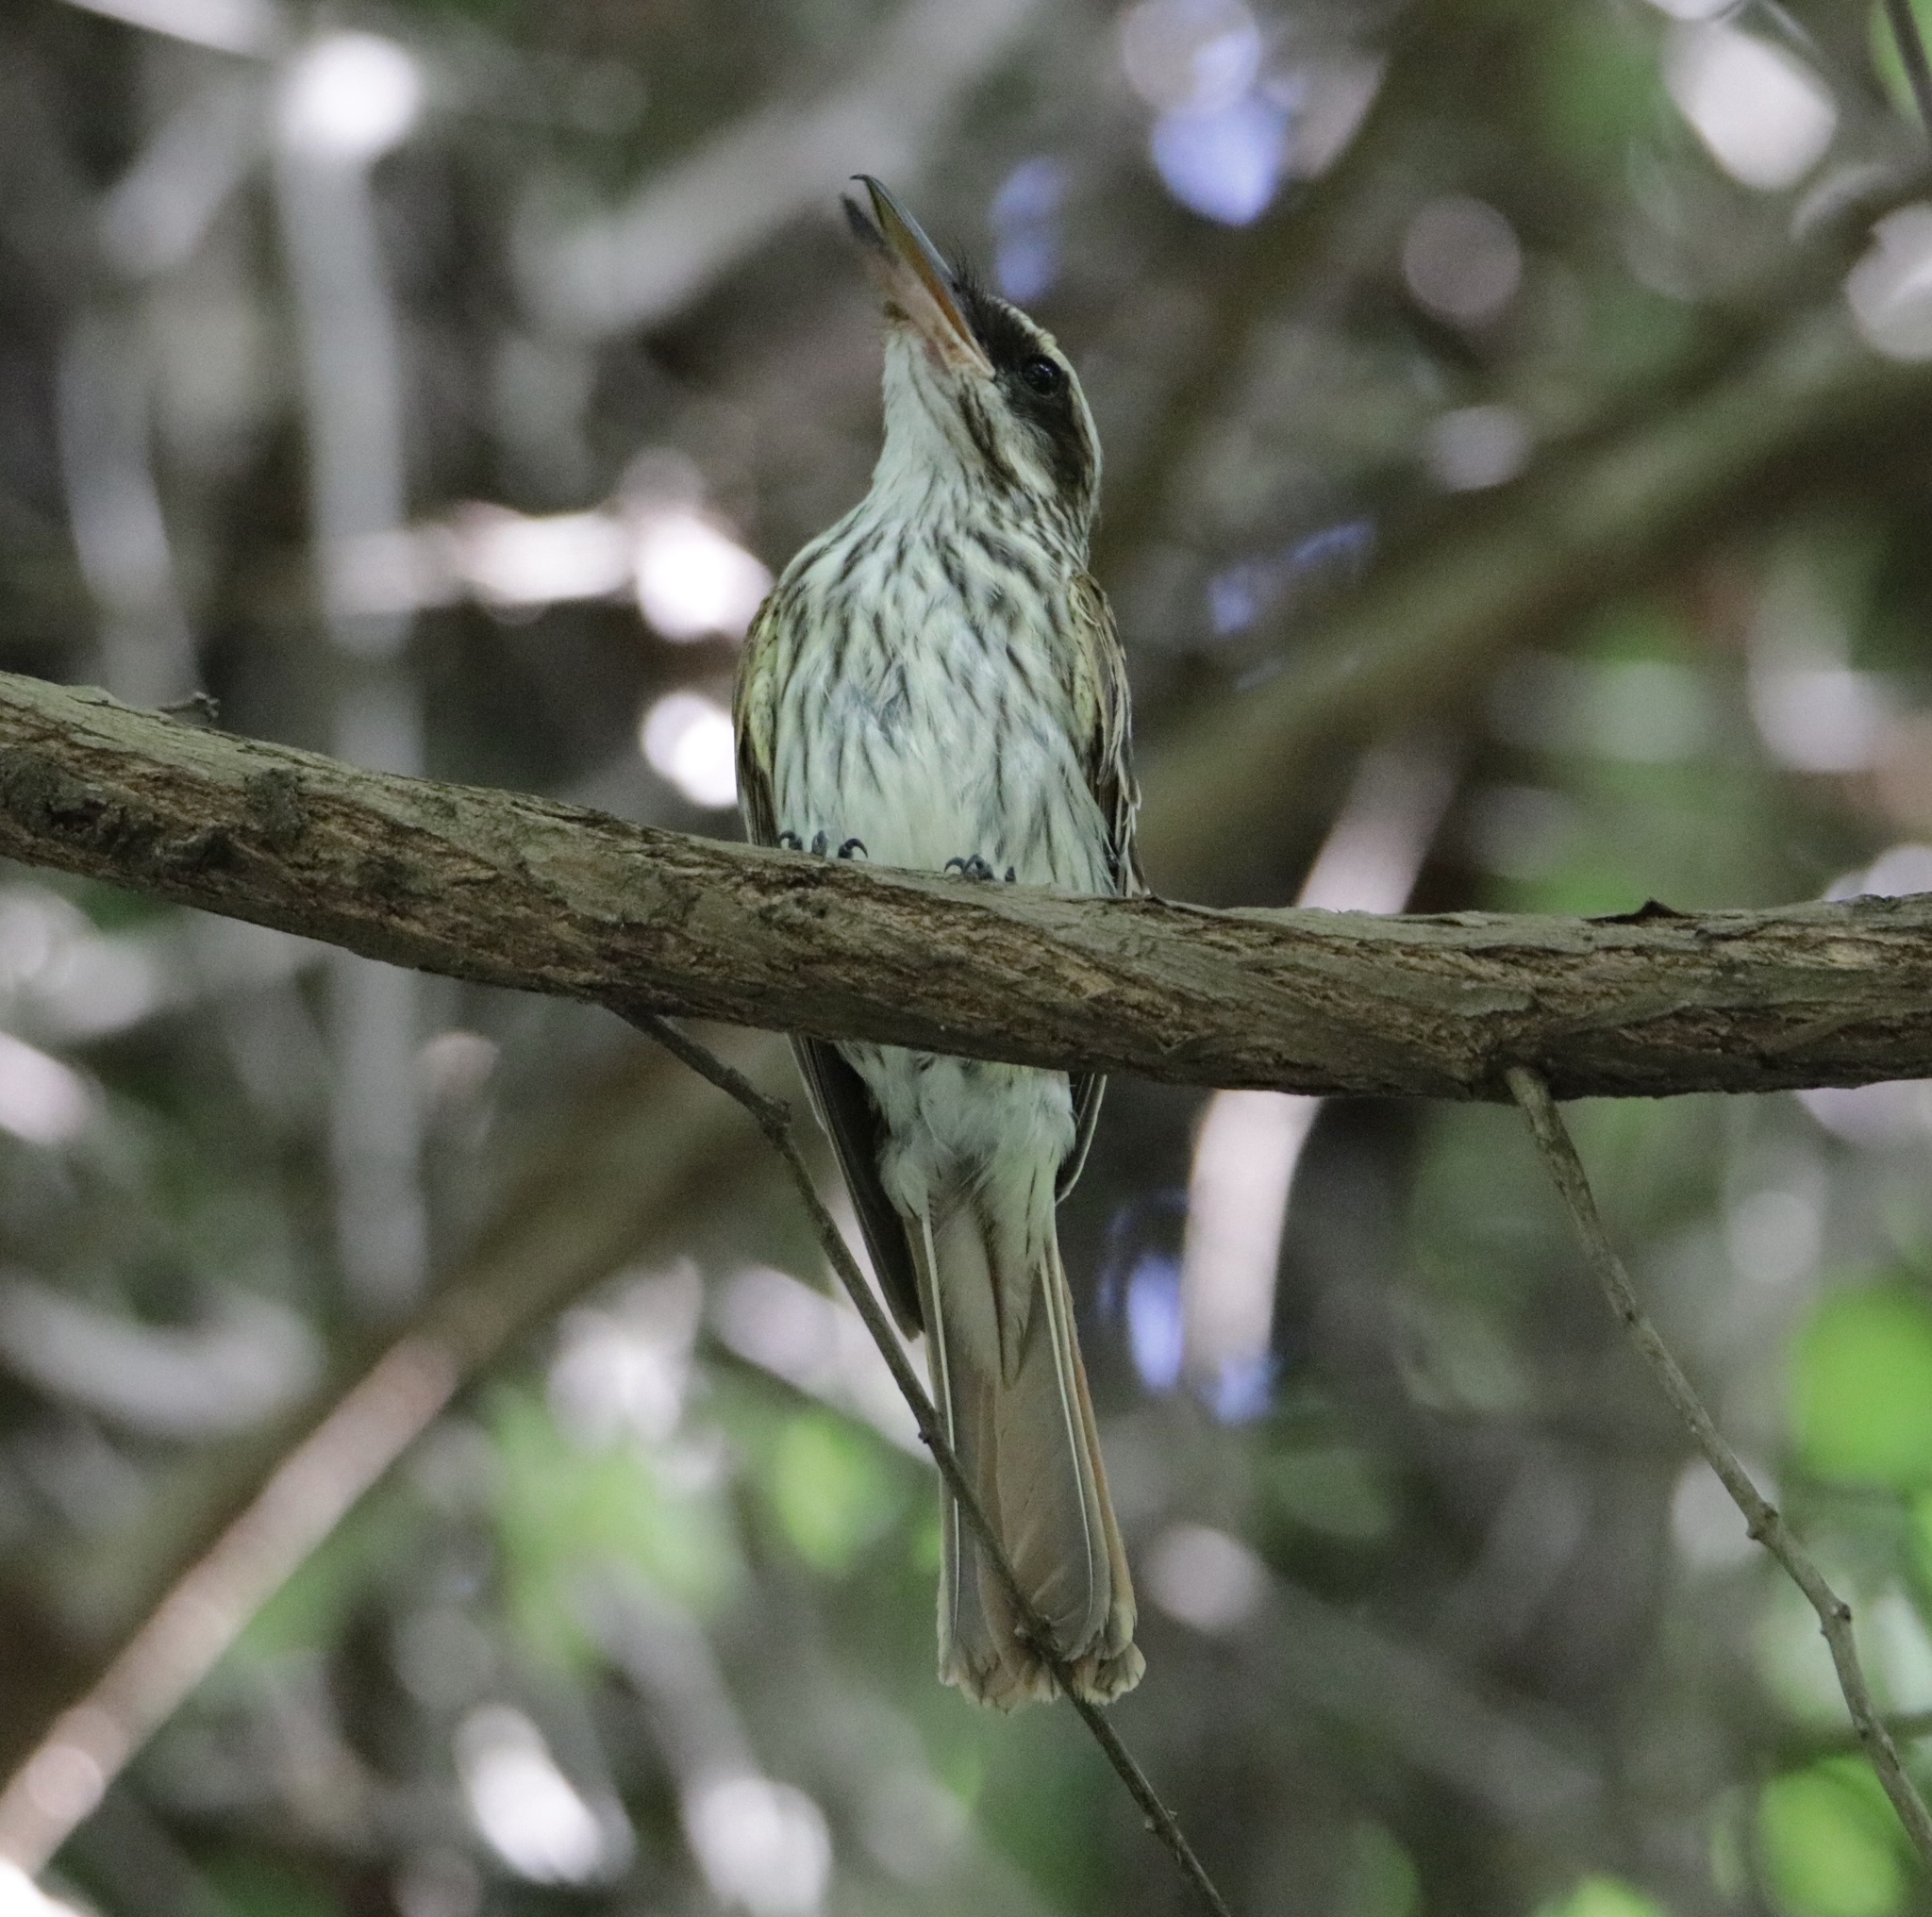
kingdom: Animalia
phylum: Chordata
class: Aves
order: Passeriformes
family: Tyrannidae
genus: Myiodynastes
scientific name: Myiodynastes maculatus
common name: Streaked flycatcher
